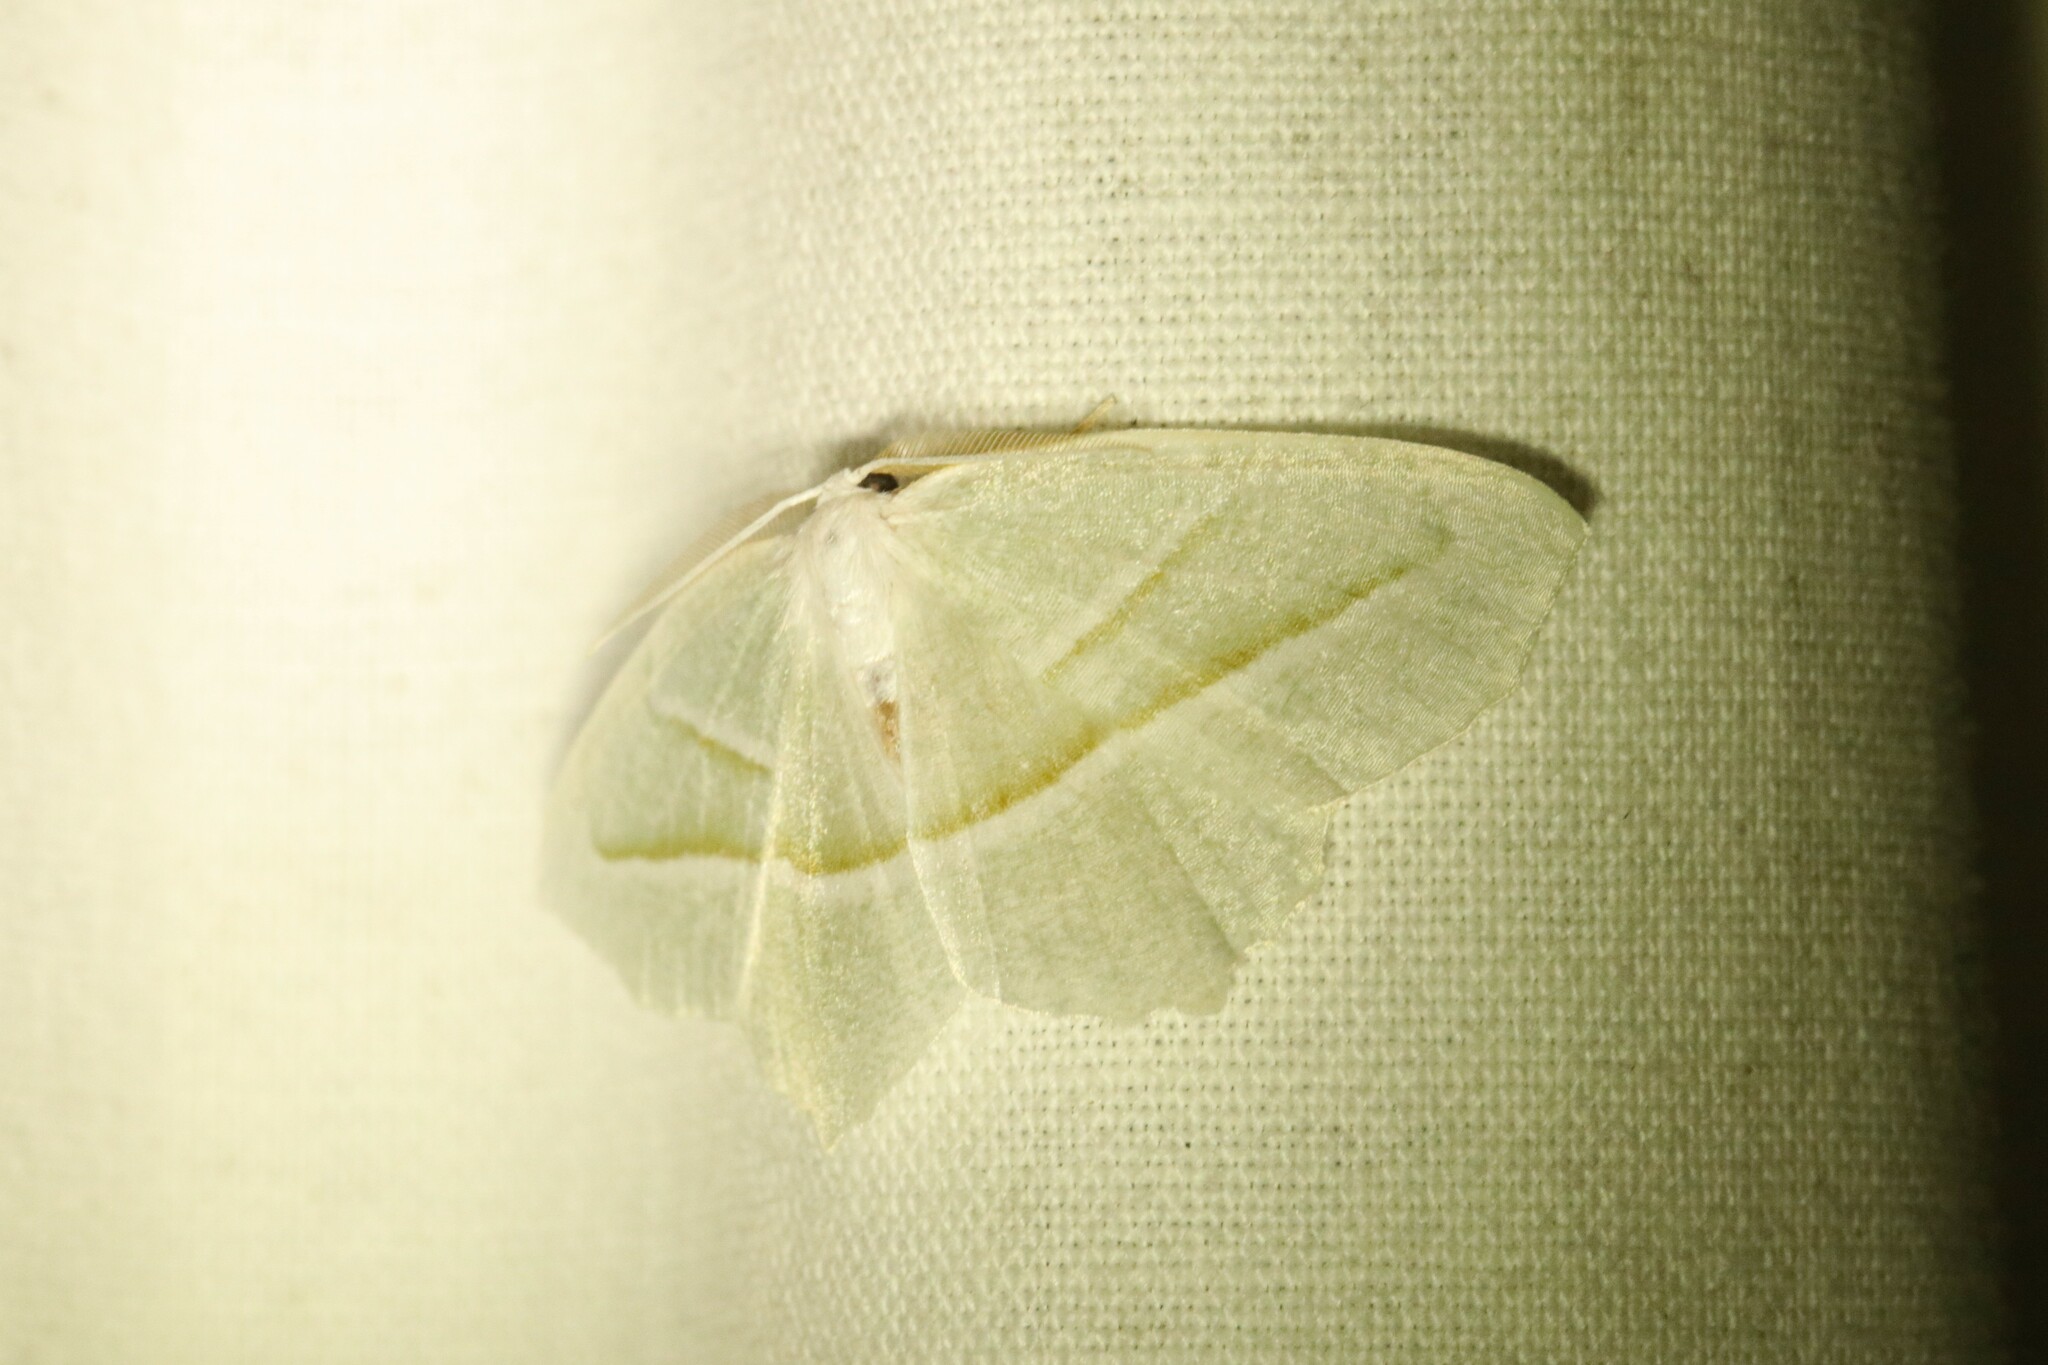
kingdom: Animalia
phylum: Arthropoda
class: Insecta
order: Lepidoptera
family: Geometridae
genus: Campaea
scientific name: Campaea perlata
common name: Fringed looper
